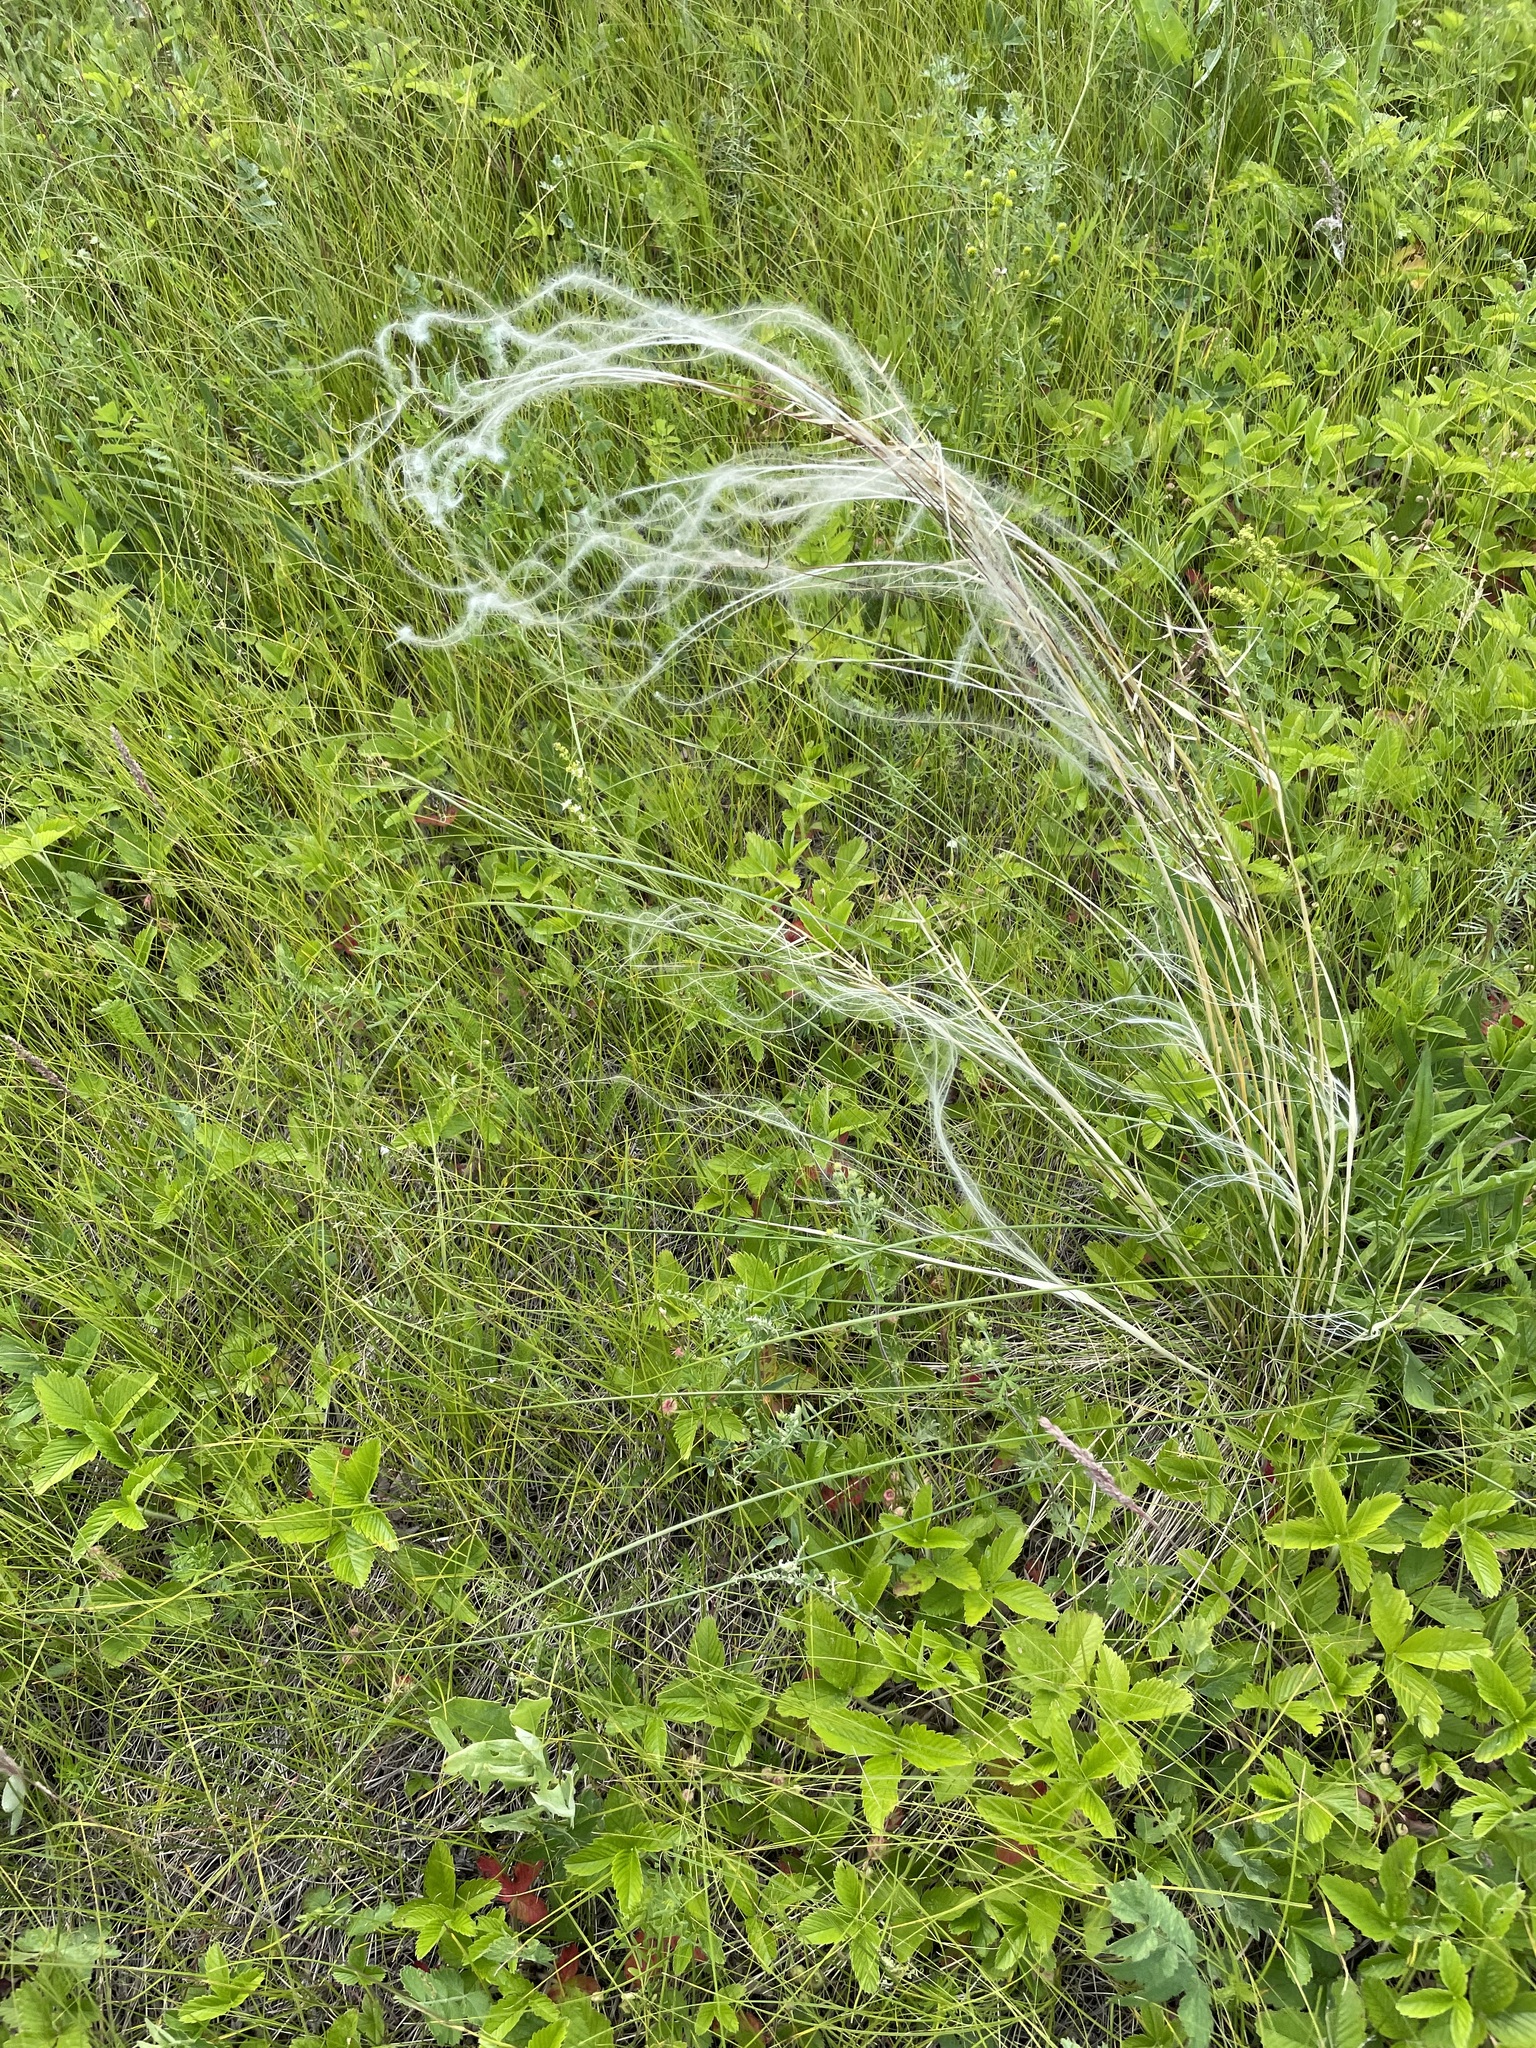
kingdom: Plantae
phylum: Tracheophyta
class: Liliopsida
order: Poales
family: Poaceae
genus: Stipa
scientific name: Stipa pennata
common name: European feather grass
